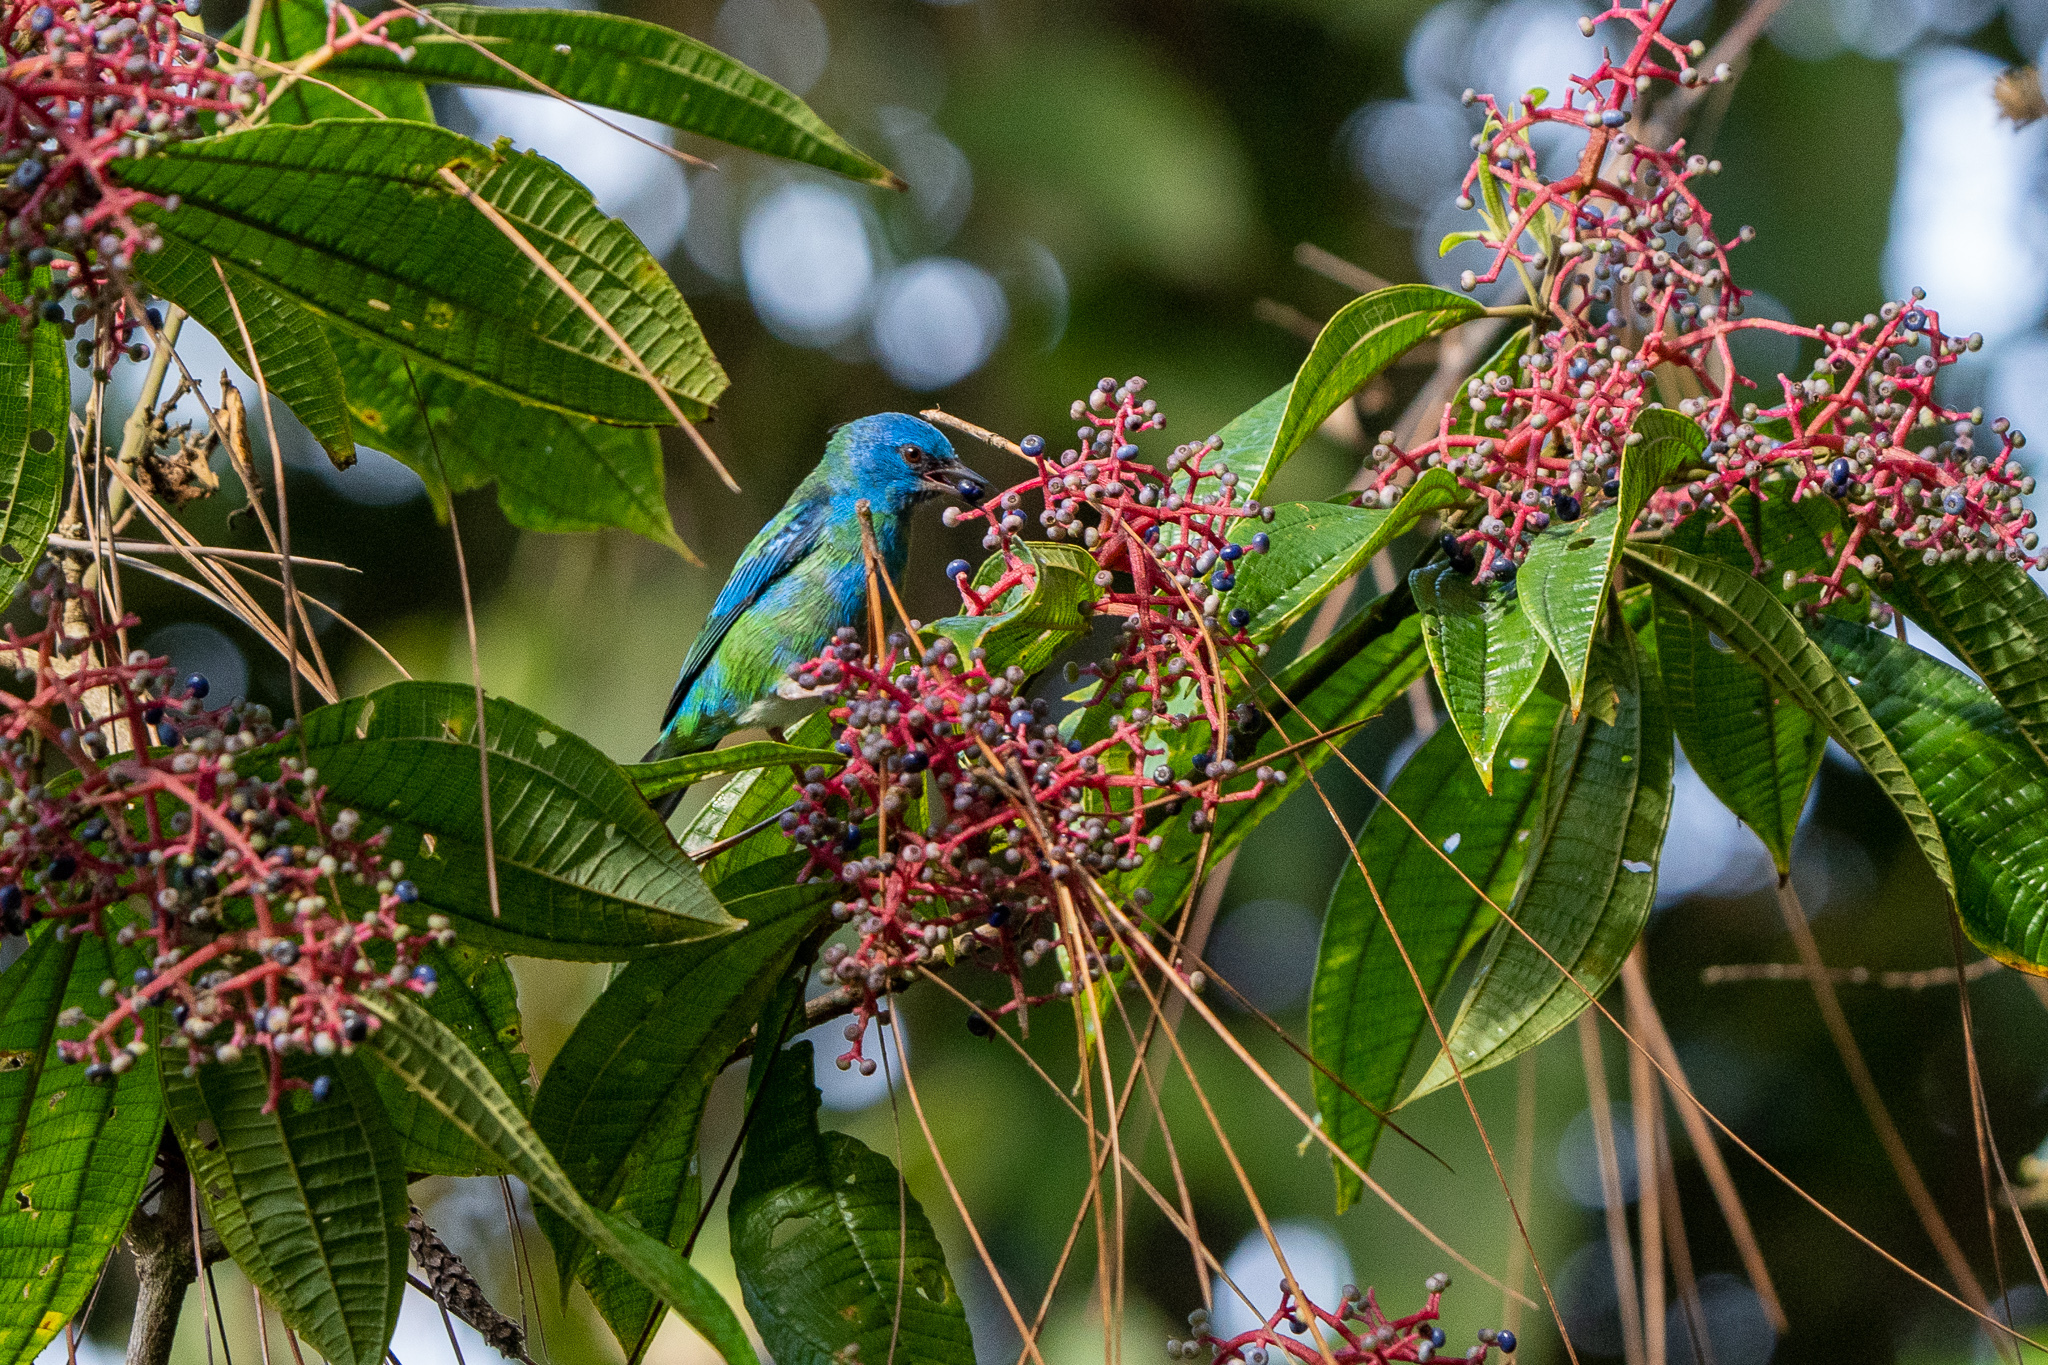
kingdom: Animalia
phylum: Chordata
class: Aves
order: Passeriformes
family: Thraupidae
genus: Dacnis
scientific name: Dacnis cayana
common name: Blue dacnis
